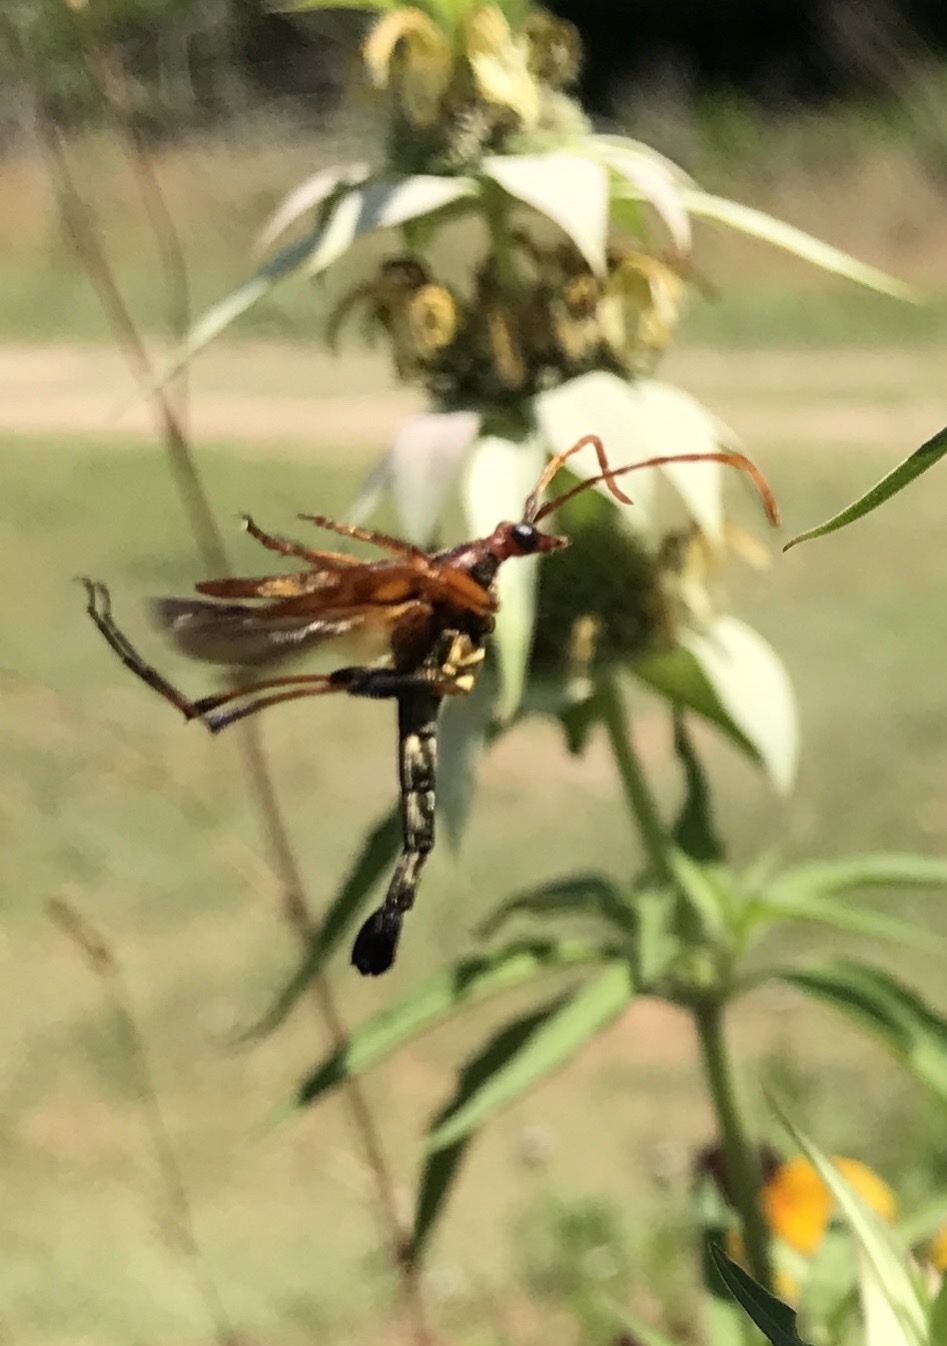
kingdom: Animalia
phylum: Arthropoda
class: Insecta
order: Coleoptera
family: Cerambycidae
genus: Strangalia
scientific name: Strangalia virilis
